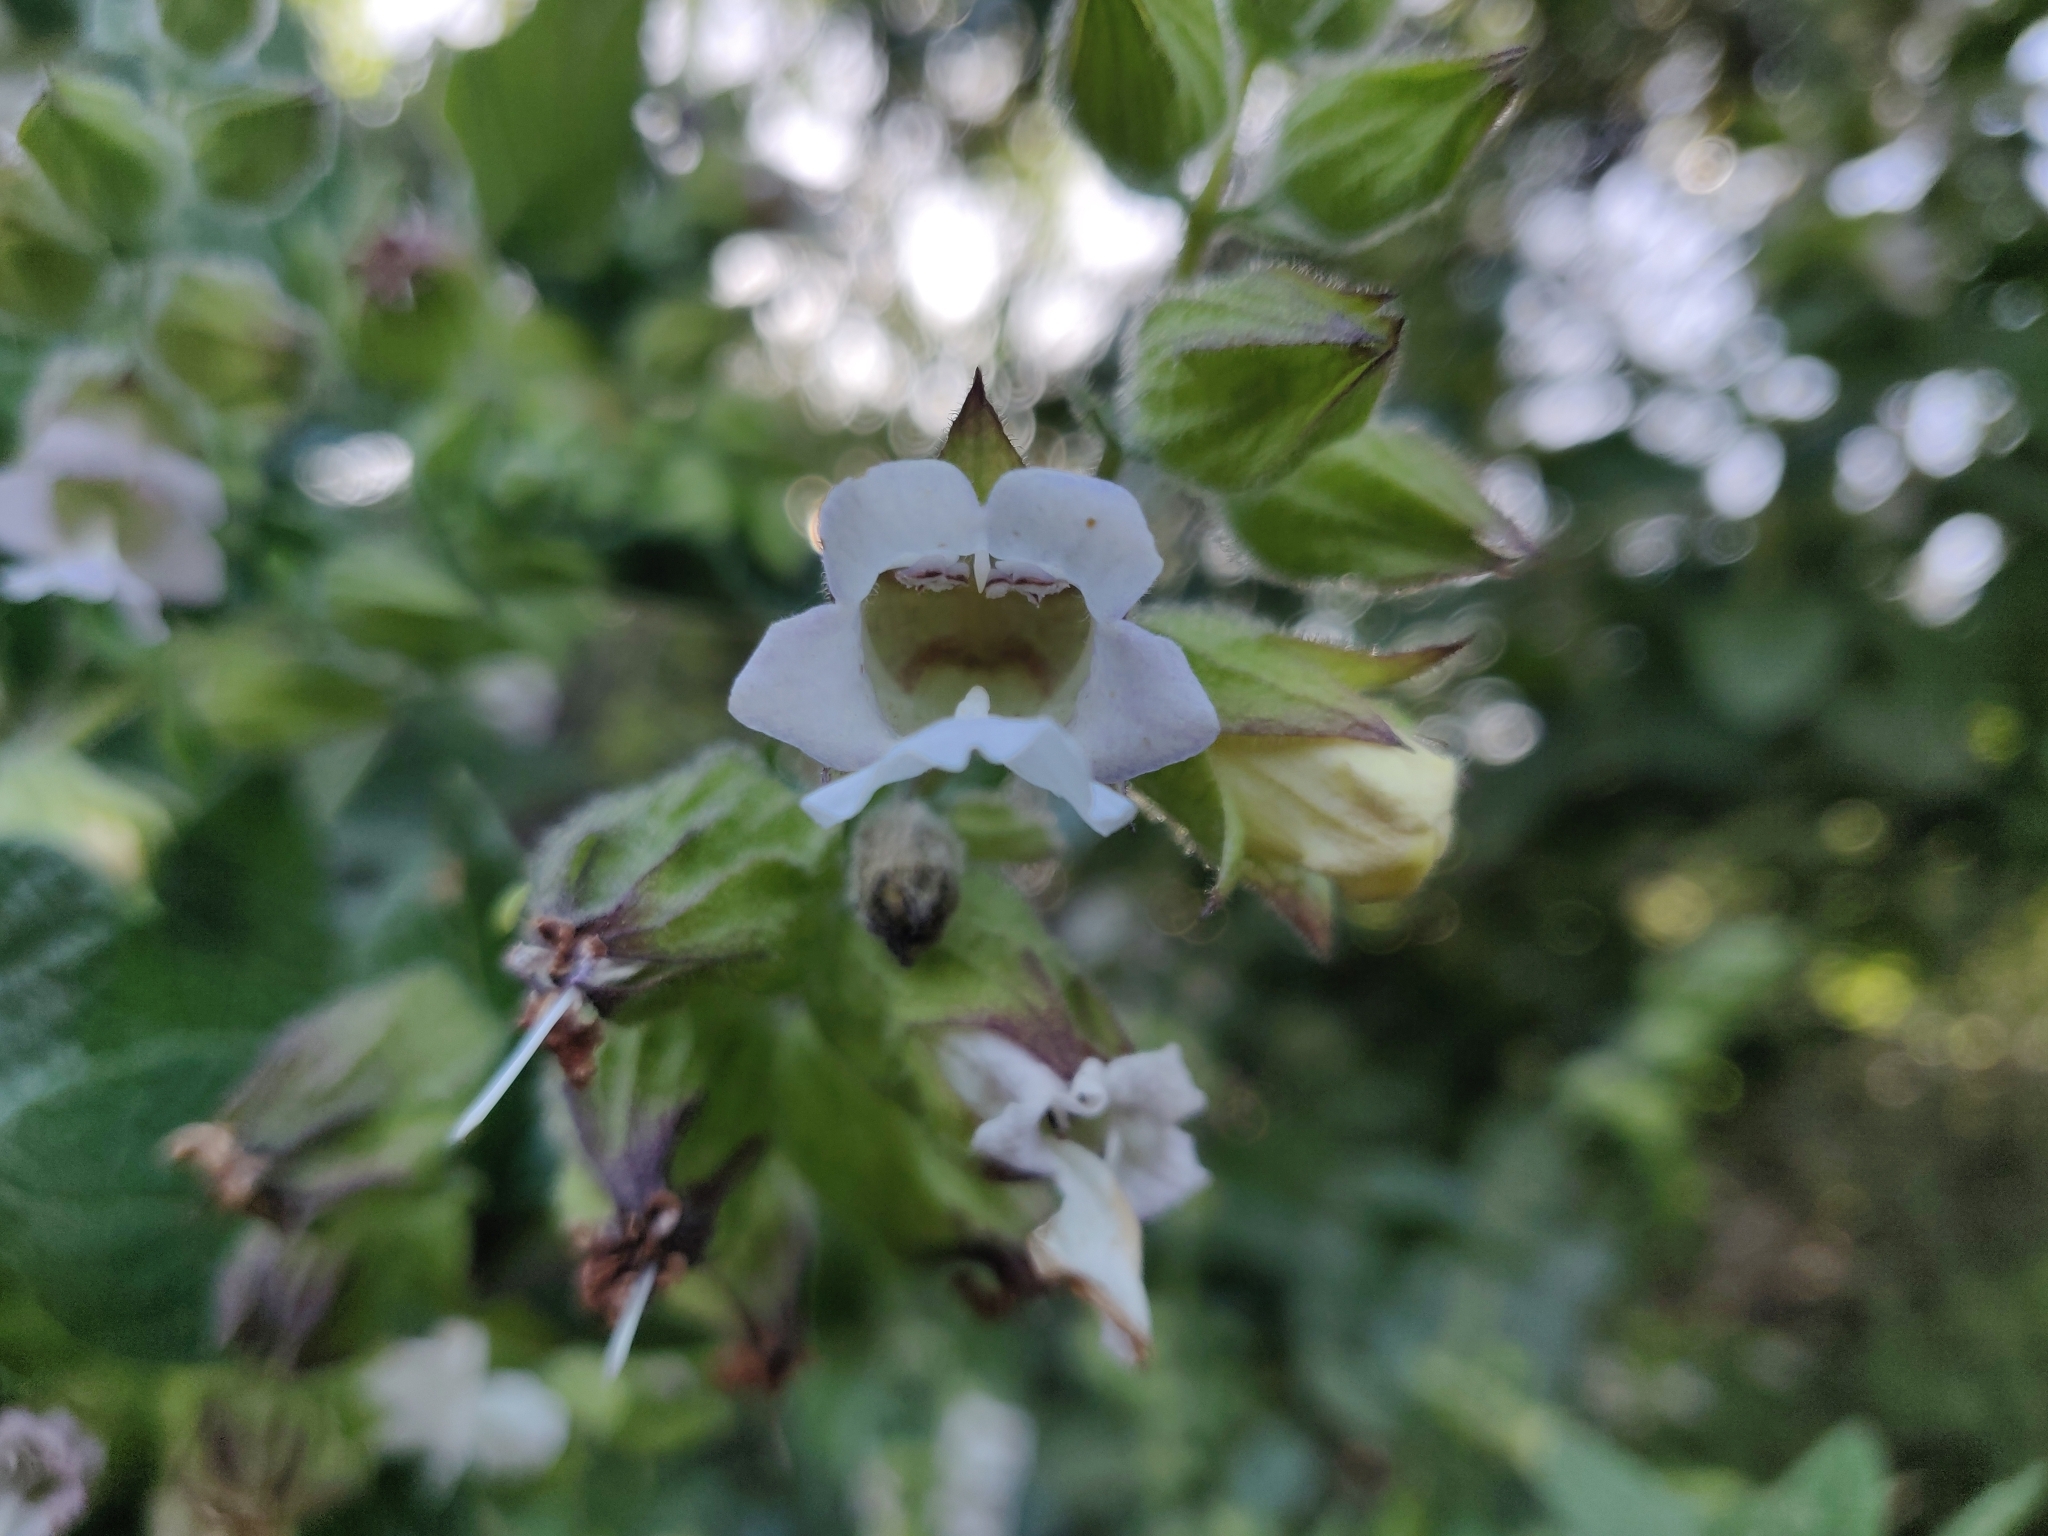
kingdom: Plantae
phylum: Tracheophyta
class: Magnoliopsida
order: Lamiales
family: Lamiaceae
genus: Lepechinia
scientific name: Lepechinia calycina
